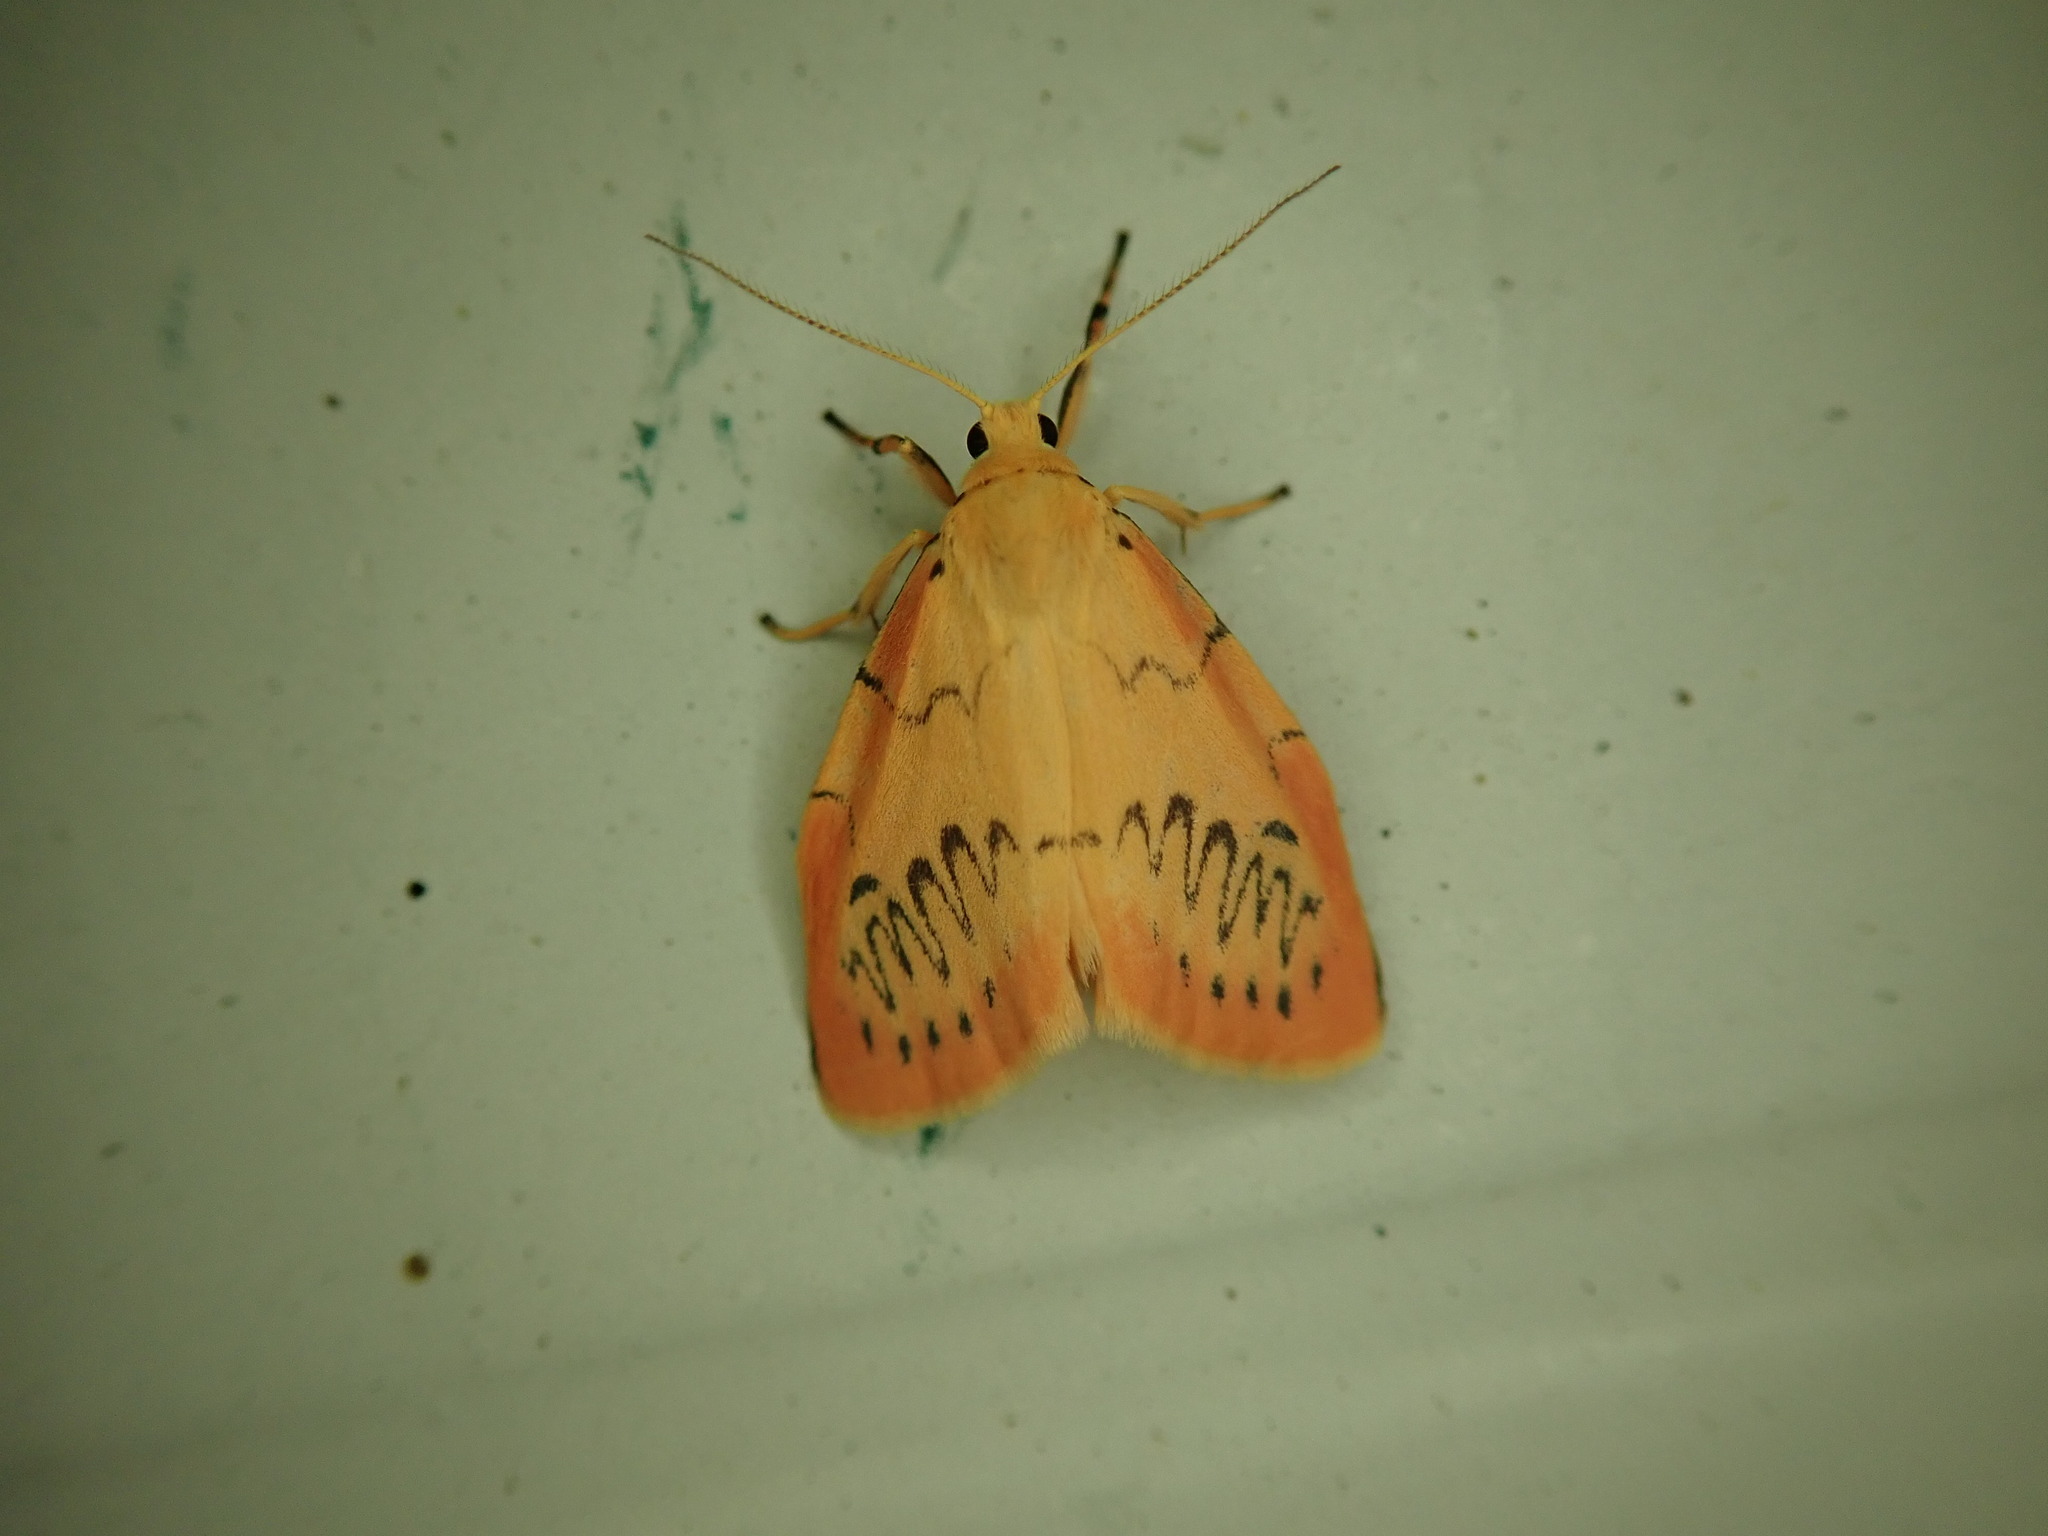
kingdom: Animalia
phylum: Arthropoda
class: Insecta
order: Lepidoptera
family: Erebidae
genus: Miltochrista
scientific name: Miltochrista miniata
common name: Rosy footman
